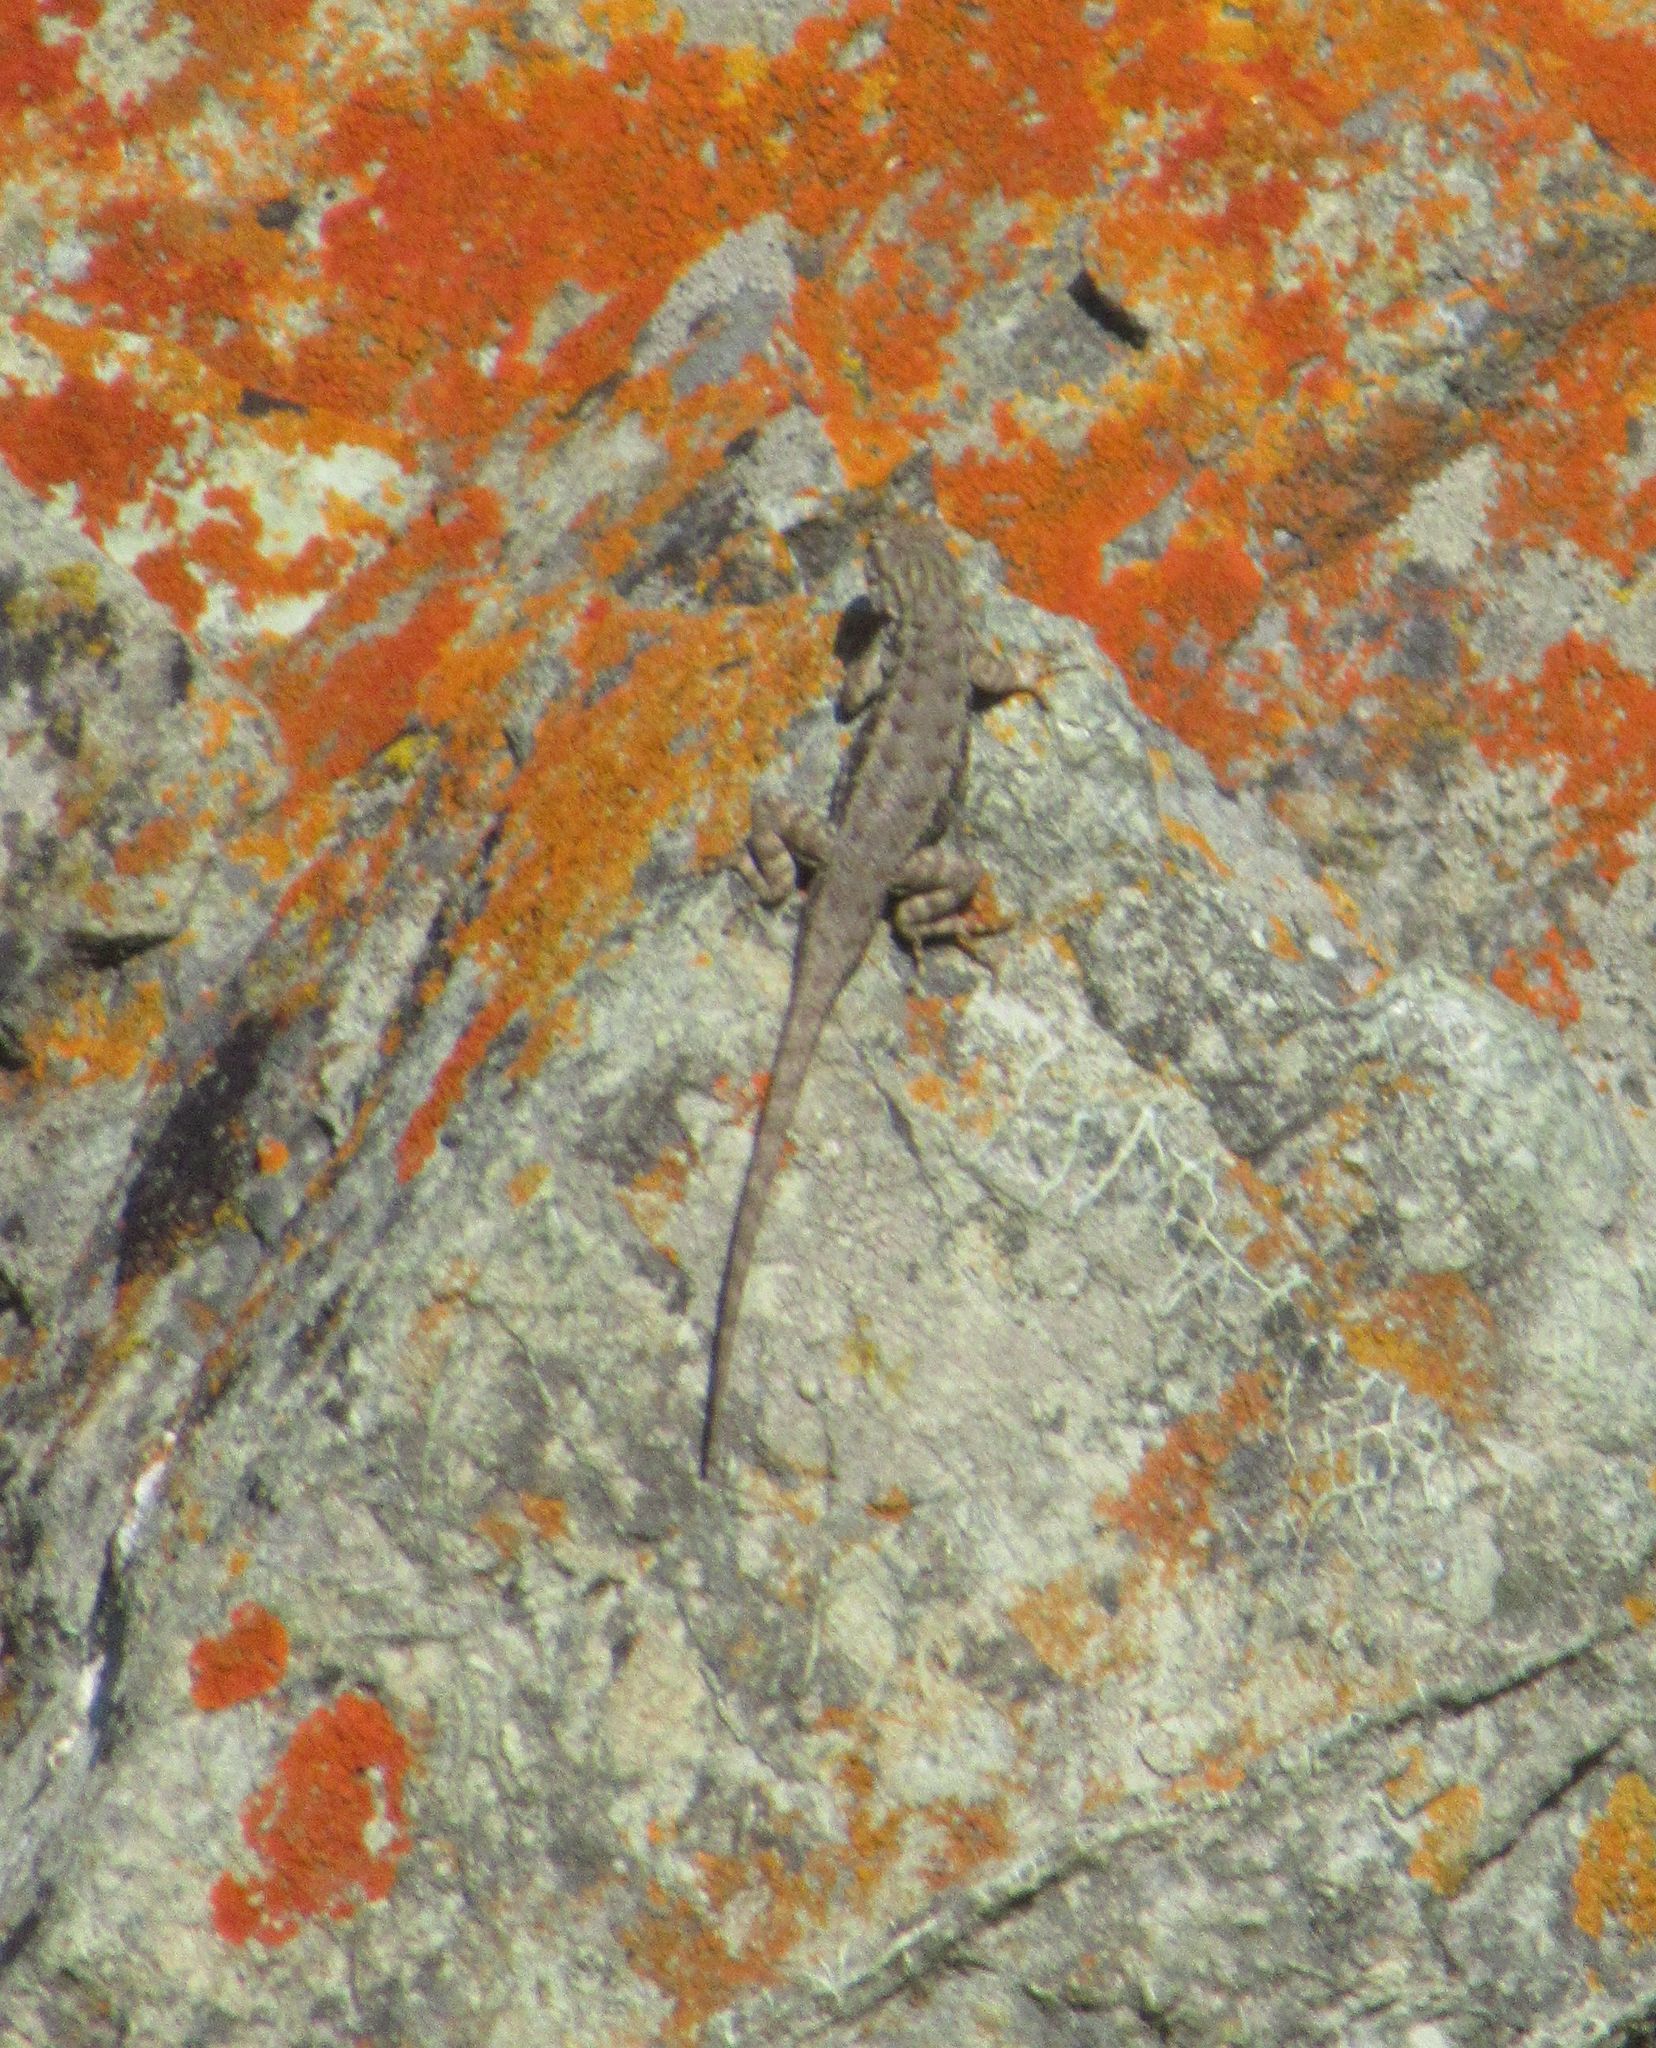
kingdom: Animalia
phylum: Chordata
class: Squamata
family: Phrynosomatidae
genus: Sceloporus
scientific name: Sceloporus occidentalis
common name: Western fence lizard
